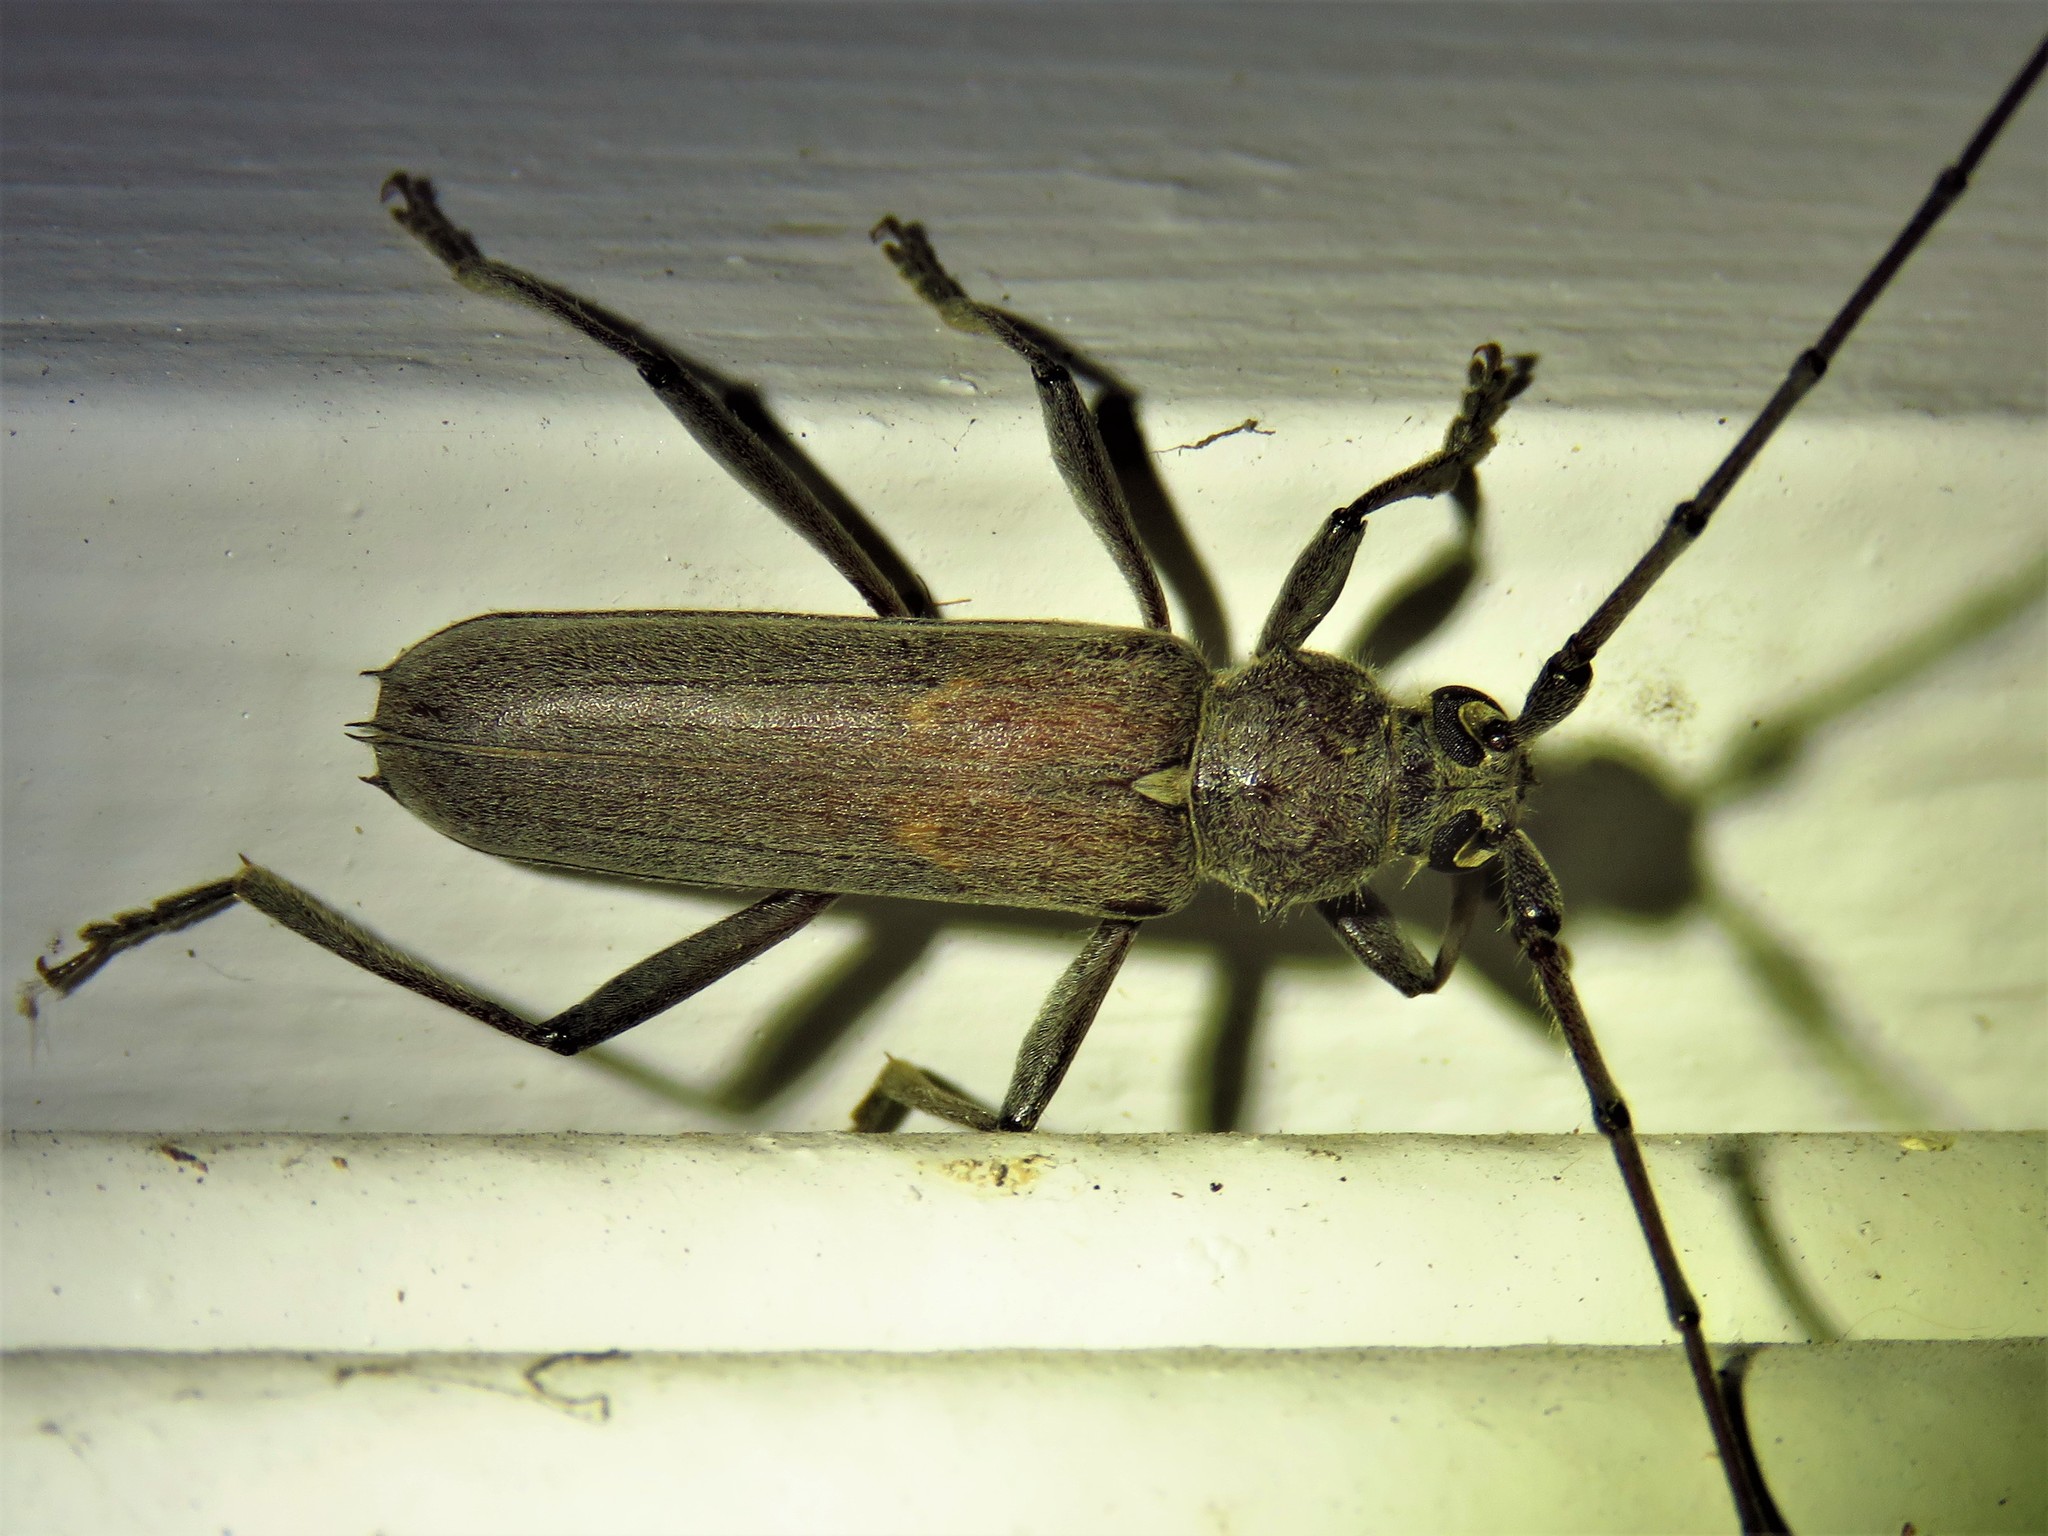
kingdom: Animalia
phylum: Arthropoda
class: Insecta
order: Coleoptera
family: Cerambycidae
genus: Knulliana
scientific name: Knulliana cincta
